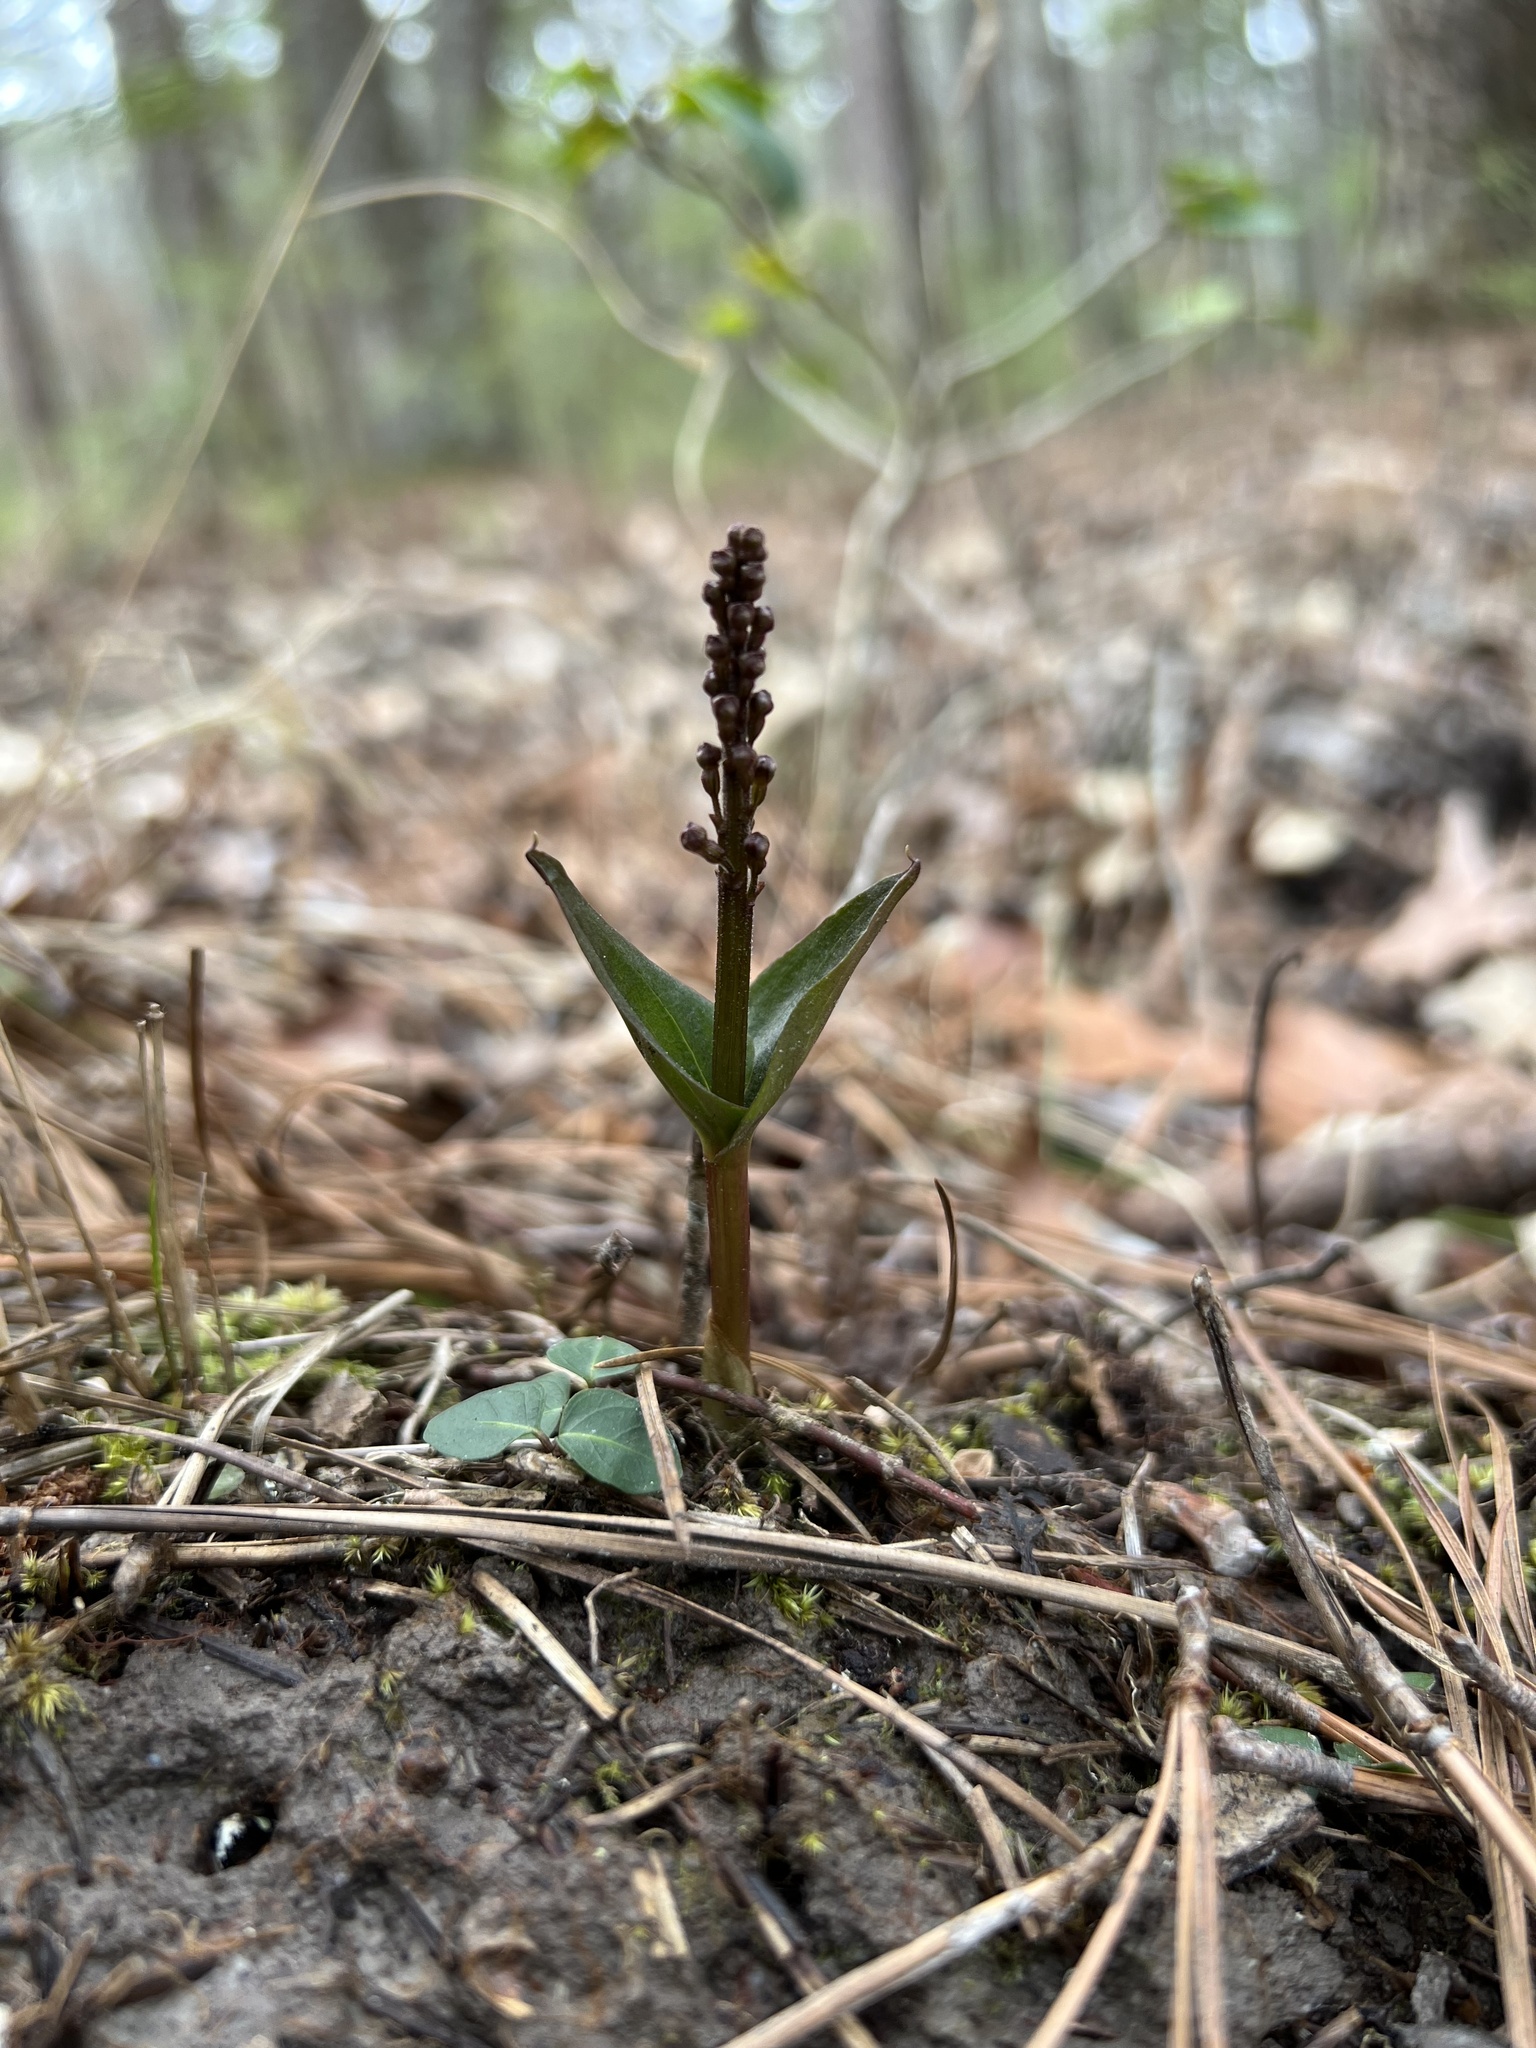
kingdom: Plantae
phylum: Tracheophyta
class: Liliopsida
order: Asparagales
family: Orchidaceae
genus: Neottia
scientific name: Neottia bifolia
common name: Southern twayblade
